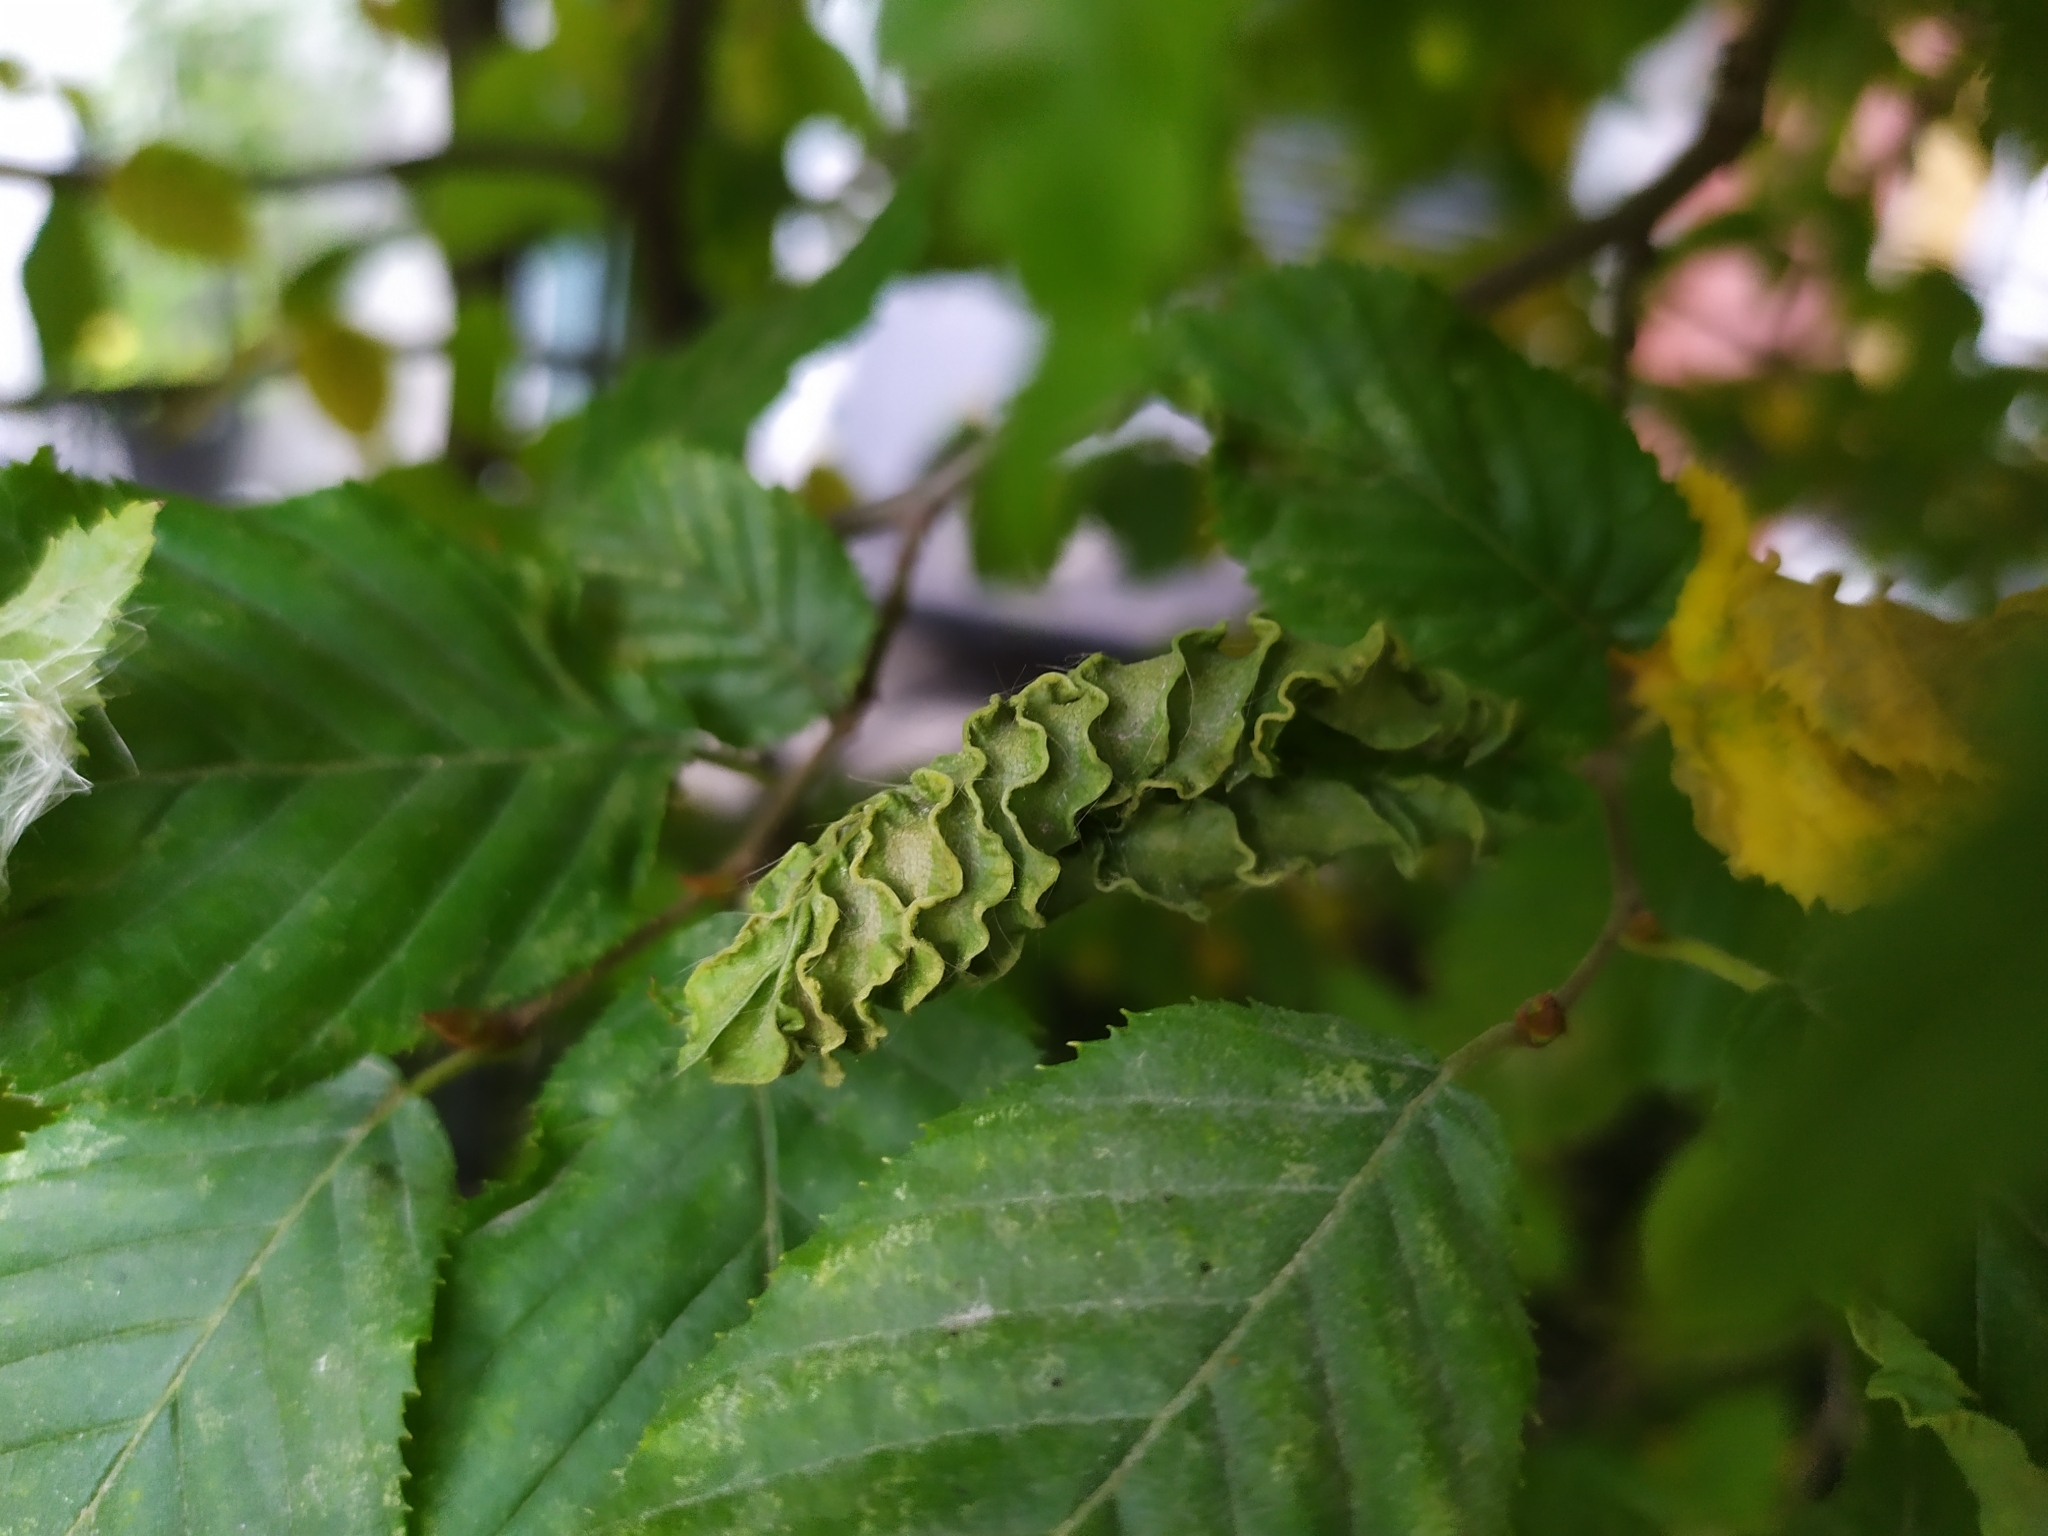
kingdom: Animalia
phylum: Arthropoda
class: Arachnida
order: Trombidiformes
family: Eriophyidae
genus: Aculops
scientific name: Aculops macrotrichus
